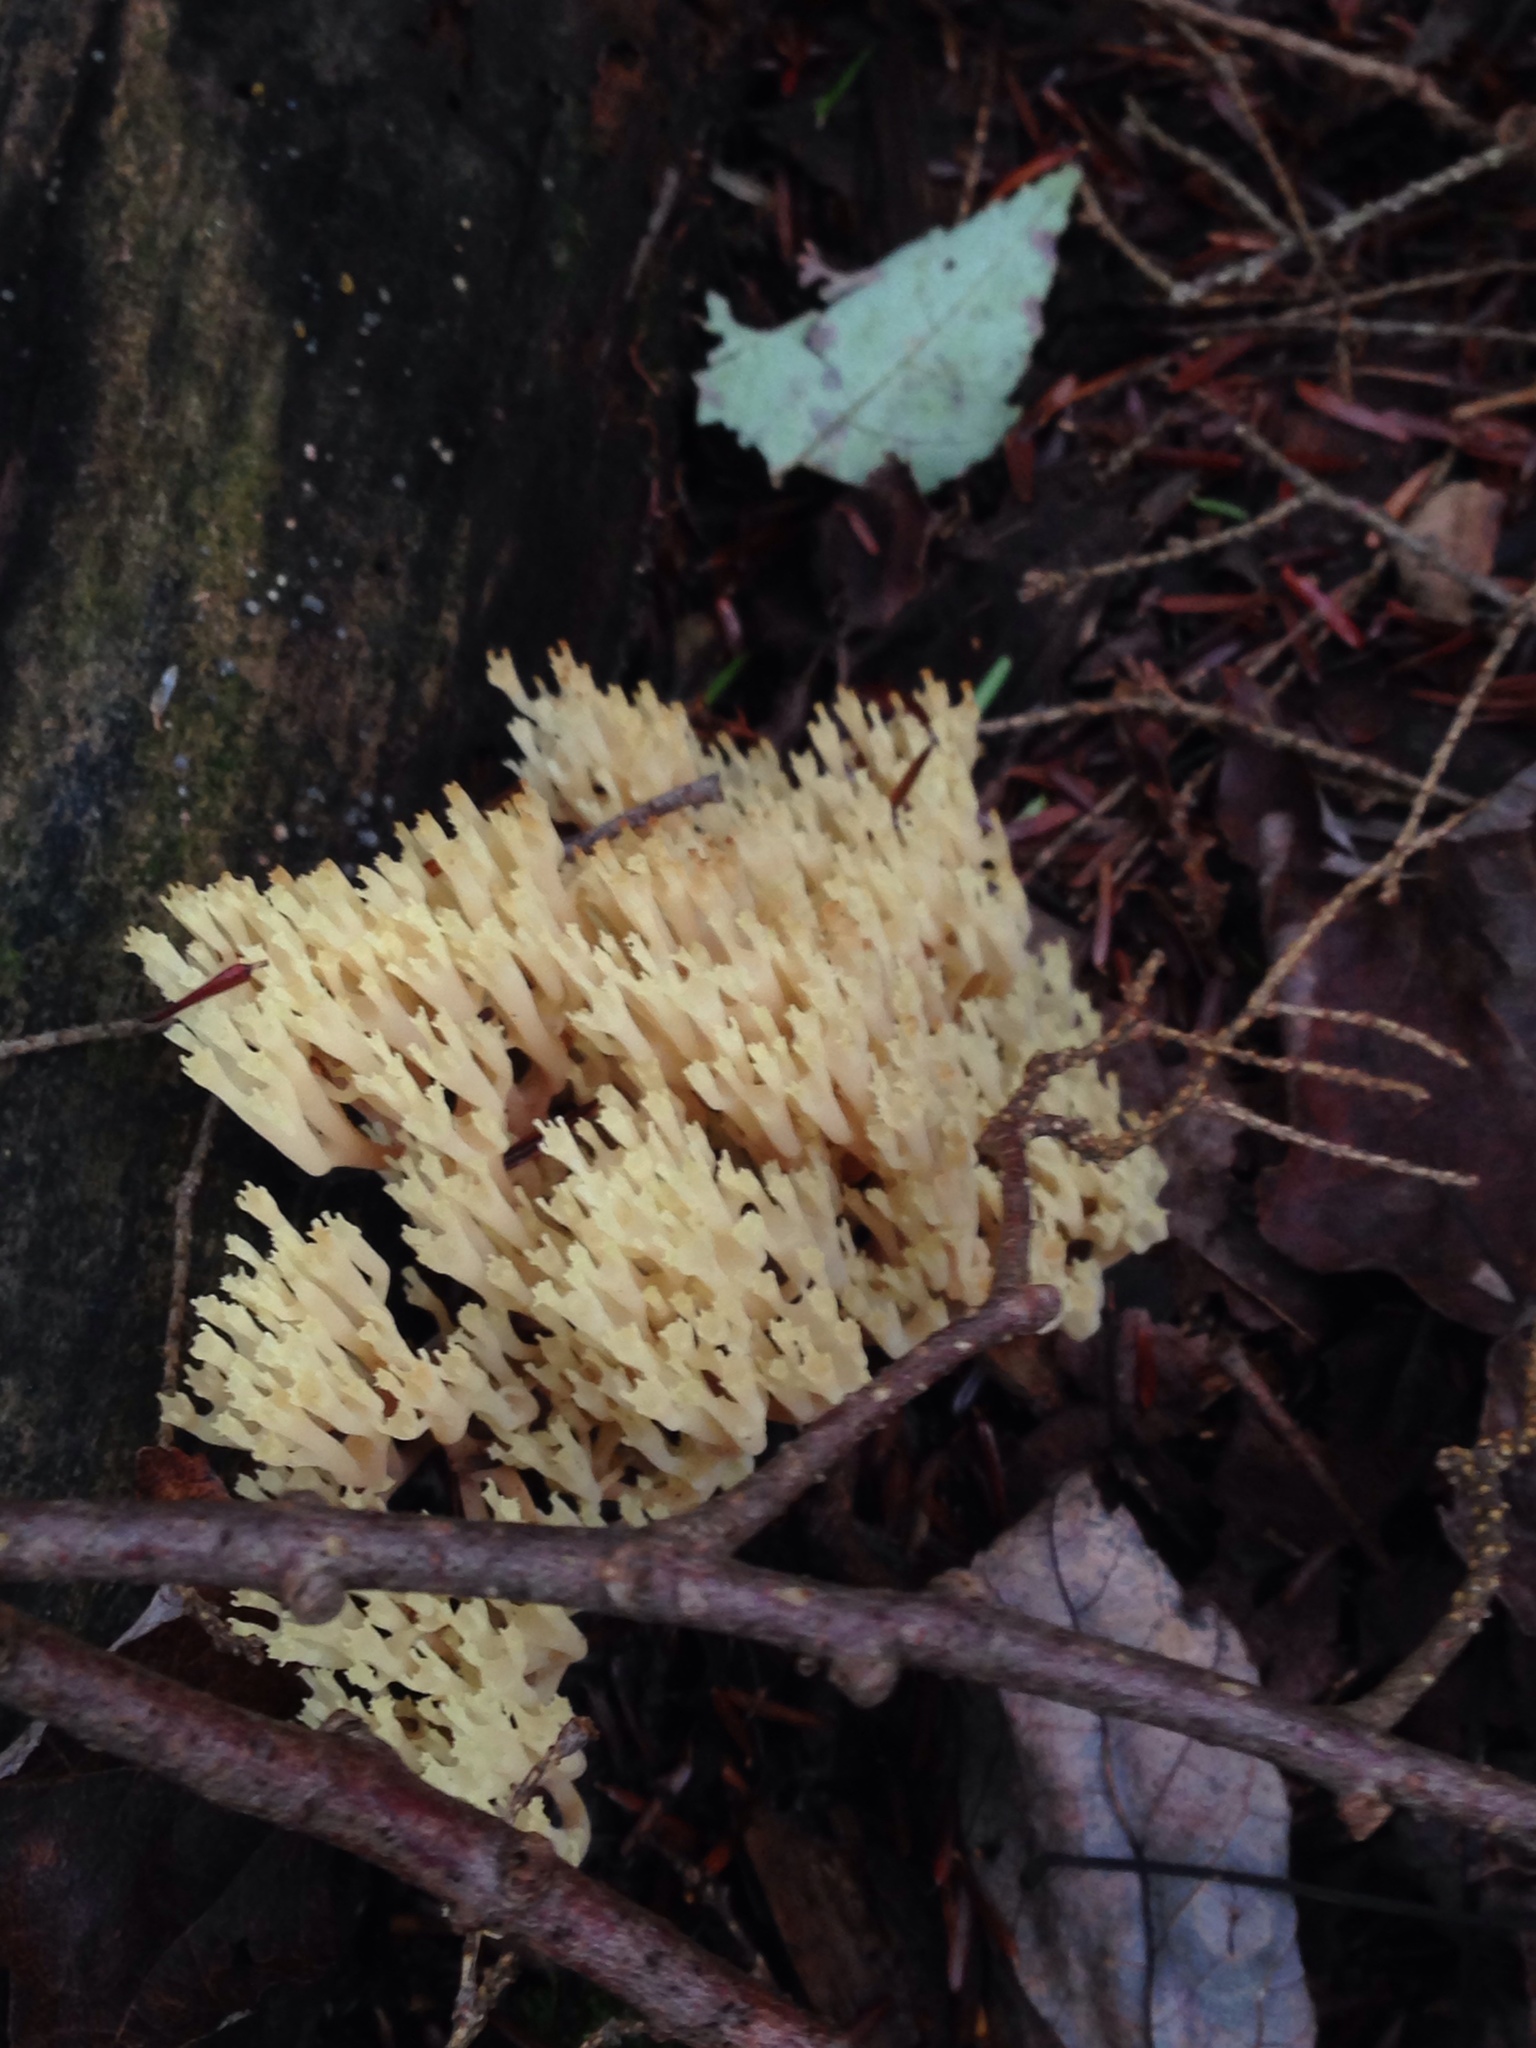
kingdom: Fungi
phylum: Basidiomycota
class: Agaricomycetes
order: Russulales
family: Auriscalpiaceae
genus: Artomyces
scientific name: Artomyces pyxidatus
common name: Crown-tipped coral fungus
